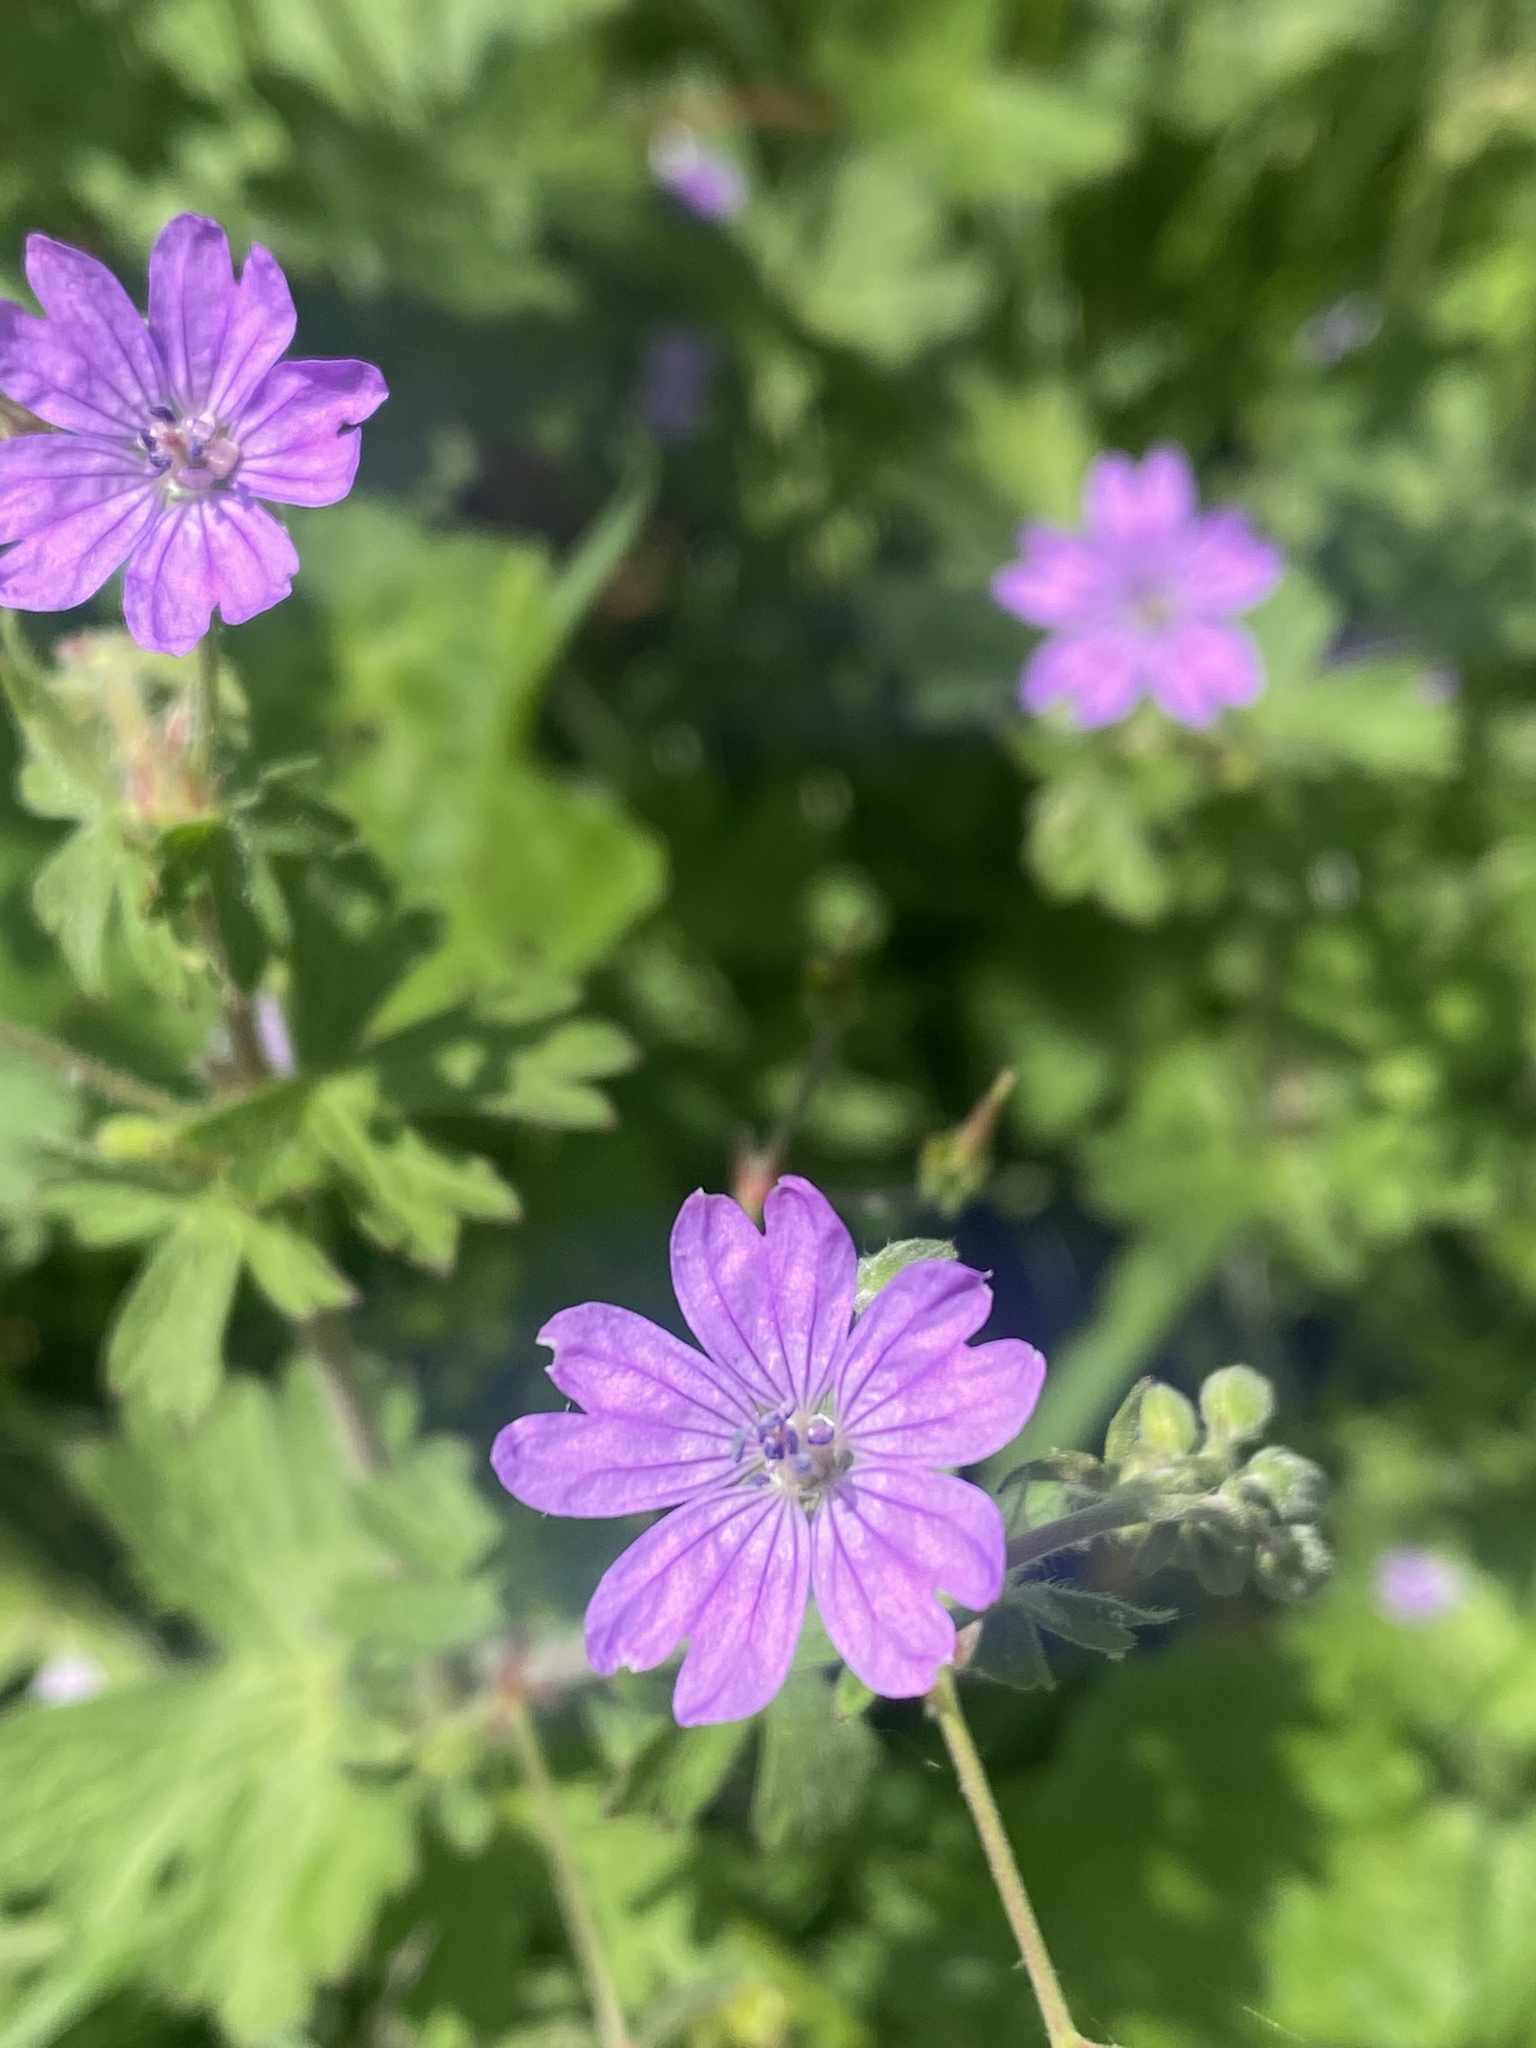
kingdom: Plantae
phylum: Tracheophyta
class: Magnoliopsida
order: Geraniales
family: Geraniaceae
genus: Geranium
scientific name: Geranium pyrenaicum
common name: Hedgerow crane's-bill
